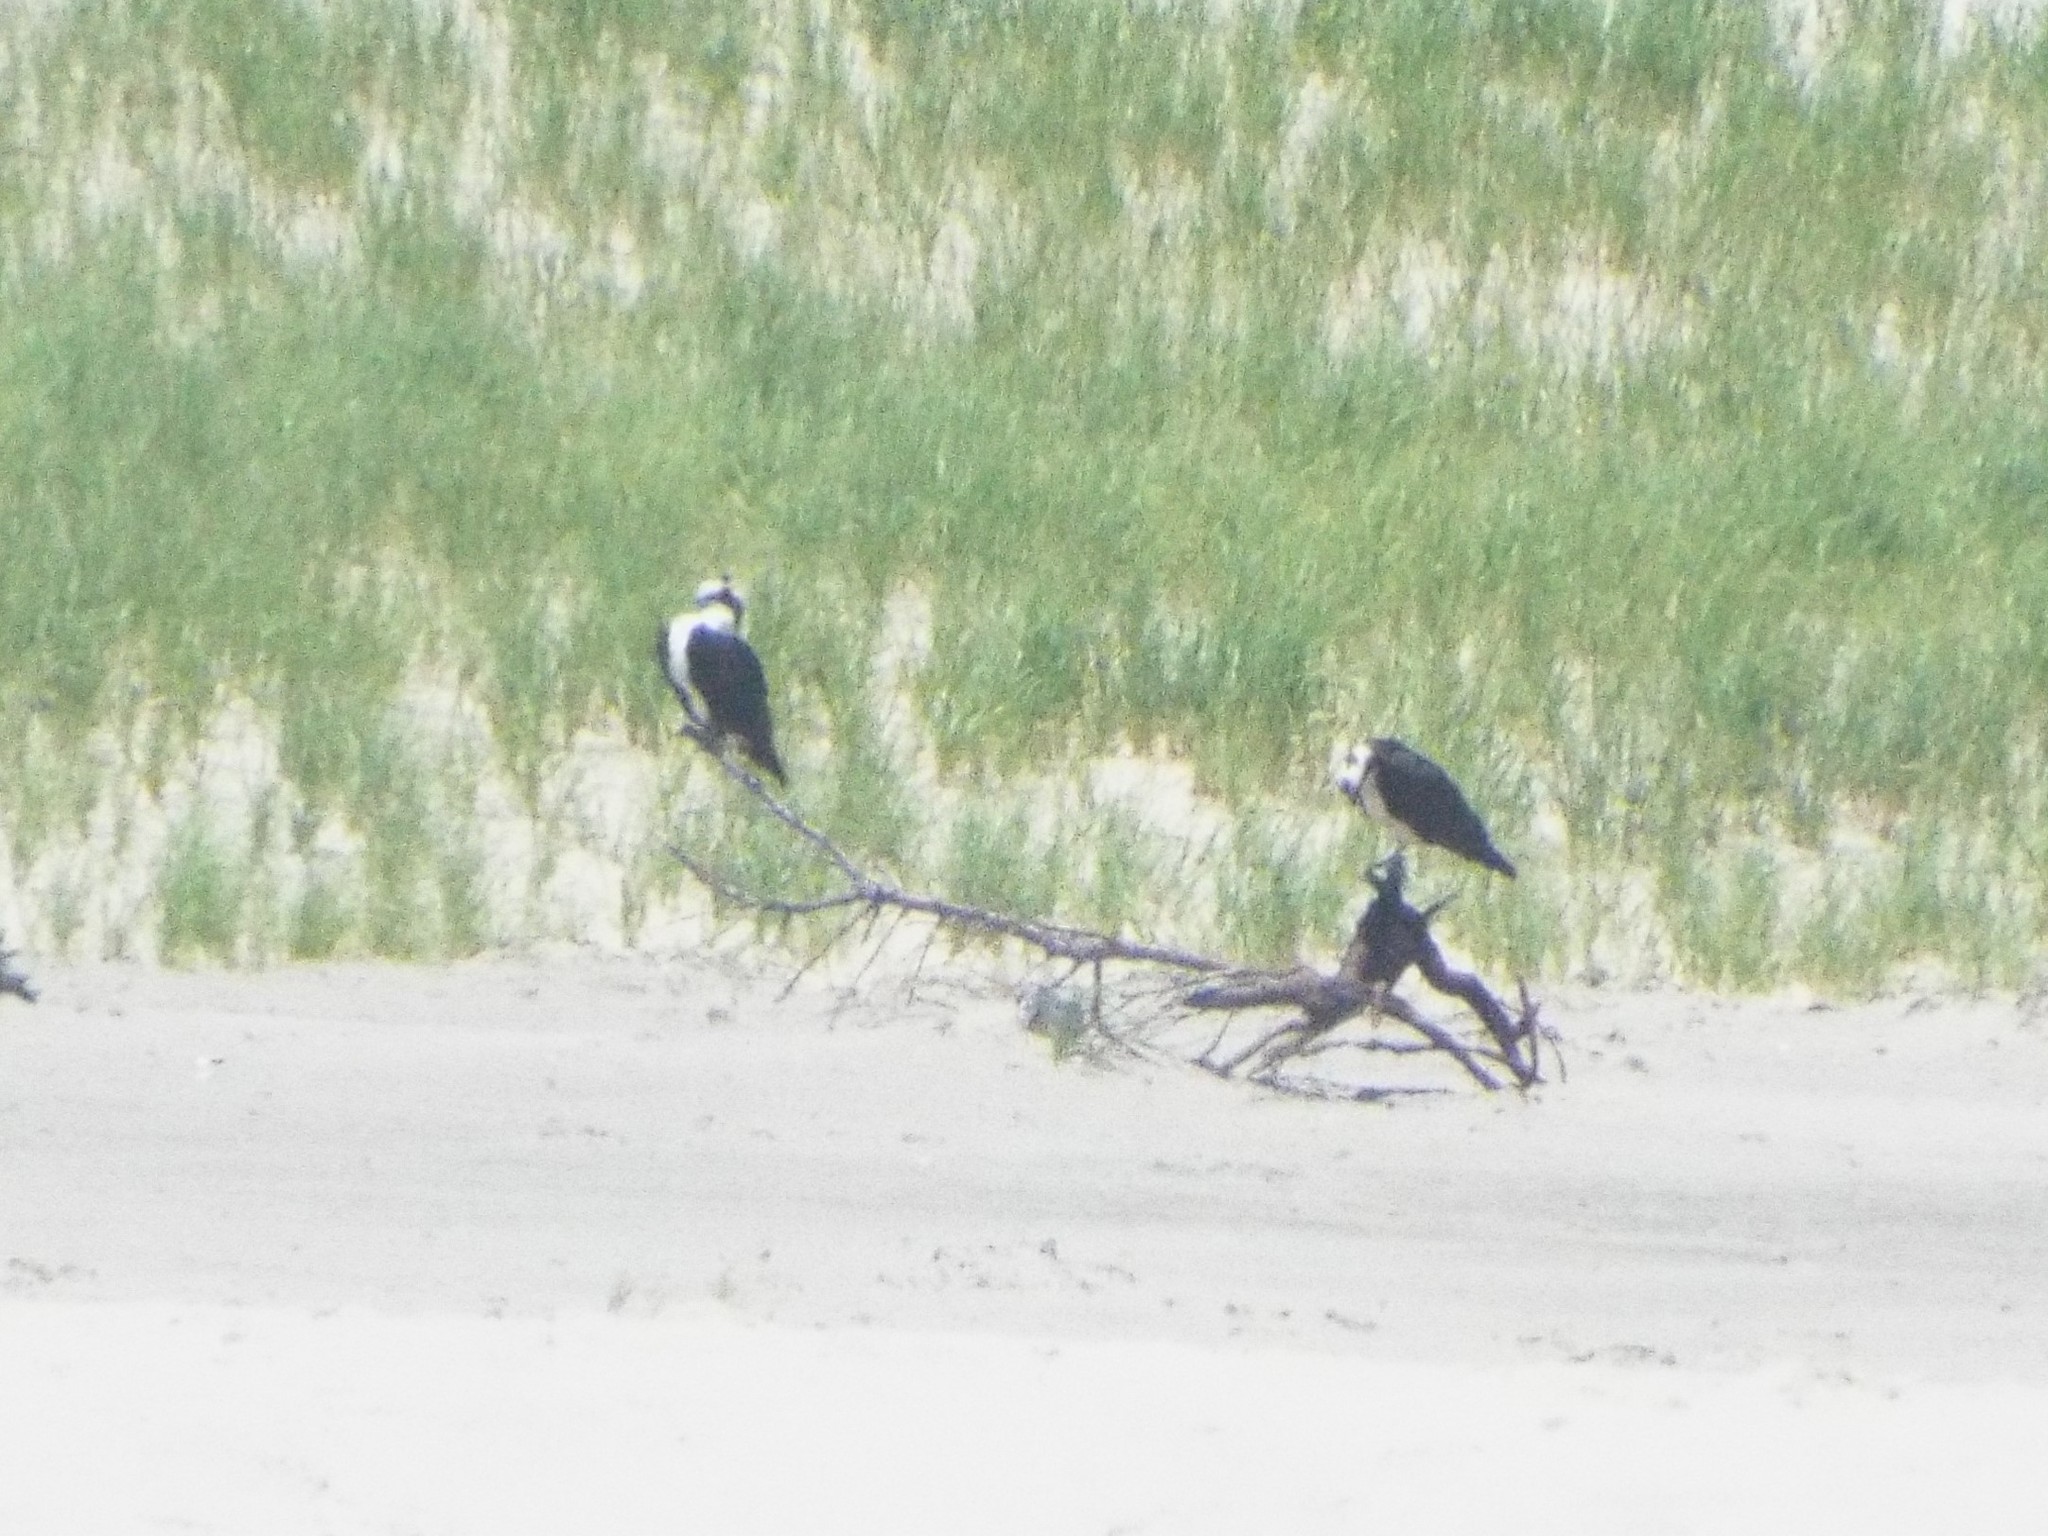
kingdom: Animalia
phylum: Chordata
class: Aves
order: Accipitriformes
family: Pandionidae
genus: Pandion
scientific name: Pandion haliaetus
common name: Osprey
